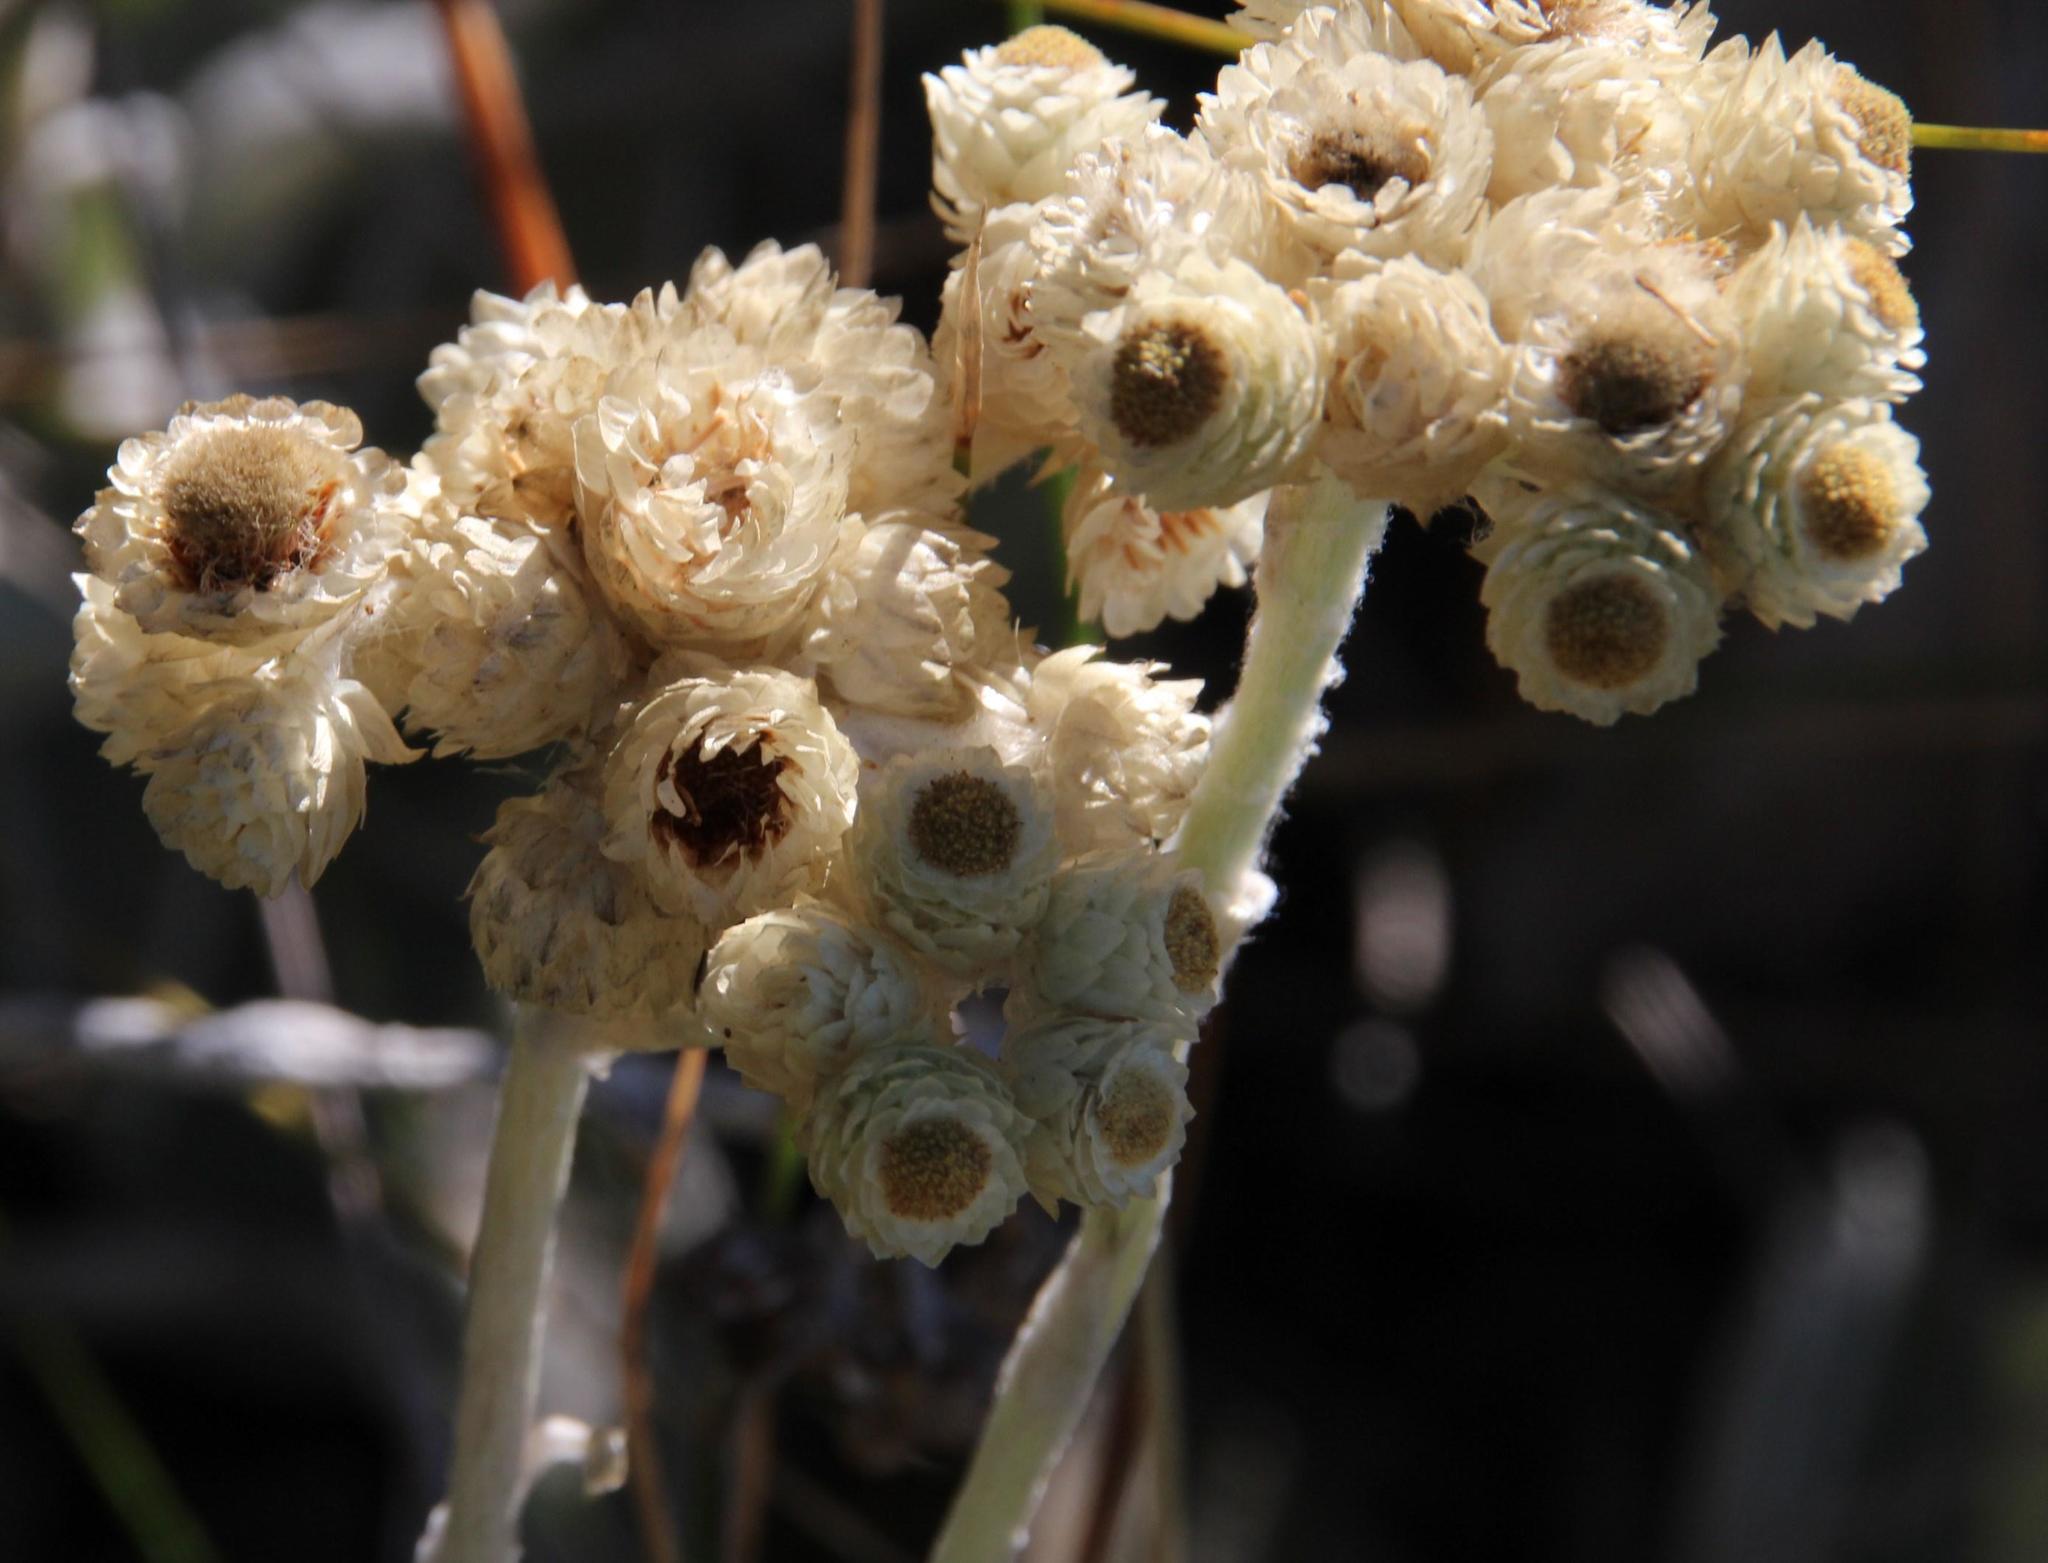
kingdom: Plantae
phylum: Tracheophyta
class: Magnoliopsida
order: Asterales
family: Asteraceae
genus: Helichrysum
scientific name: Helichrysum grandiflorum
